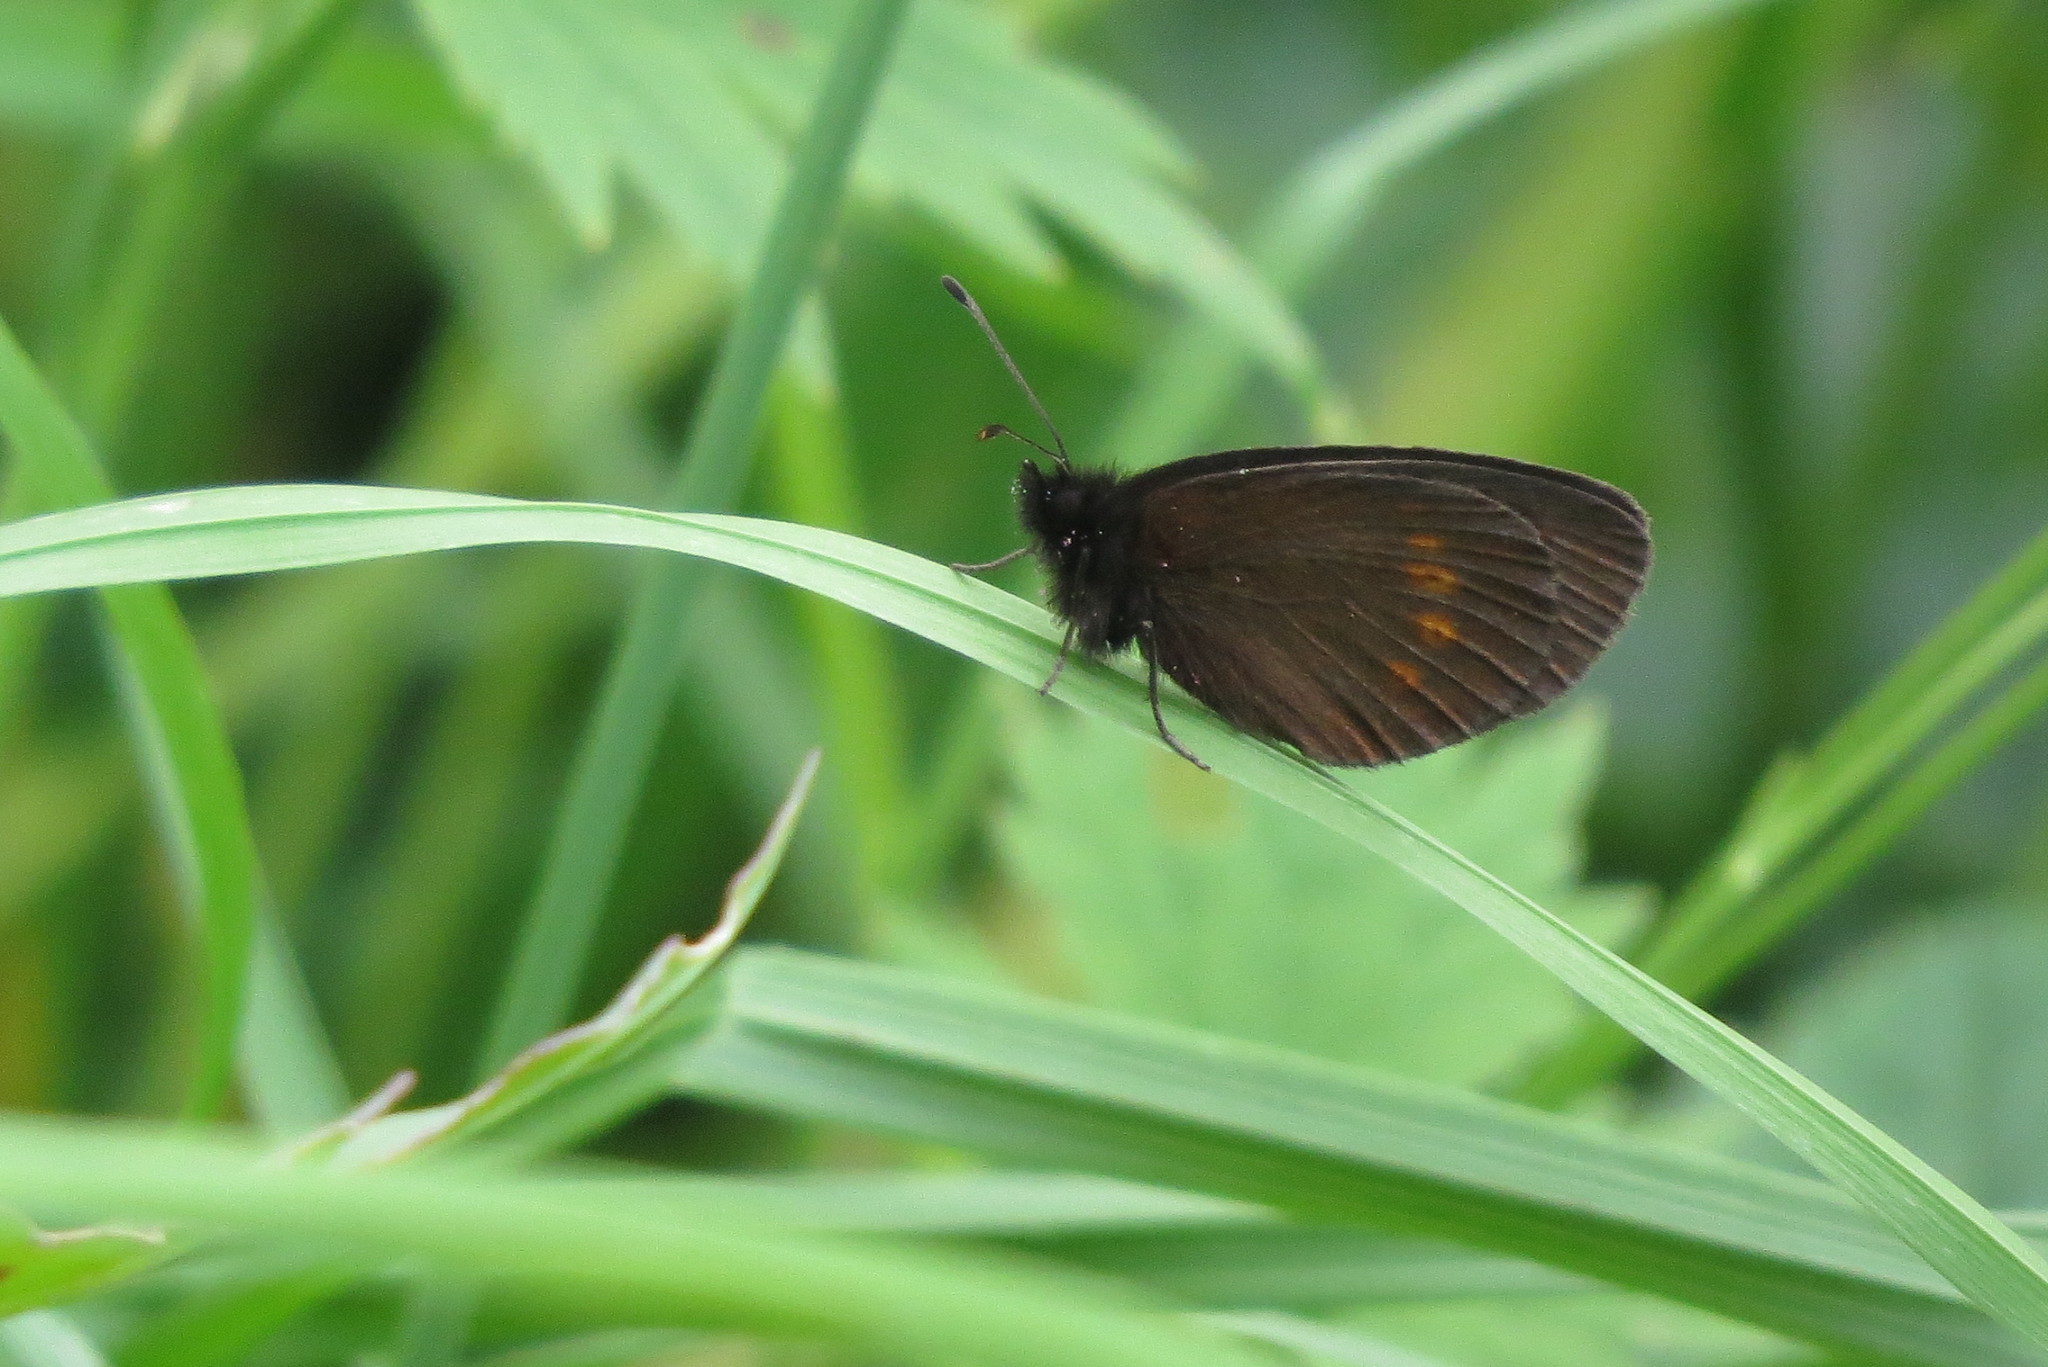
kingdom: Animalia
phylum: Arthropoda
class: Insecta
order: Lepidoptera
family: Nymphalidae
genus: Erebia
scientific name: Erebia melampus
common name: Lesser mountain ringlet
